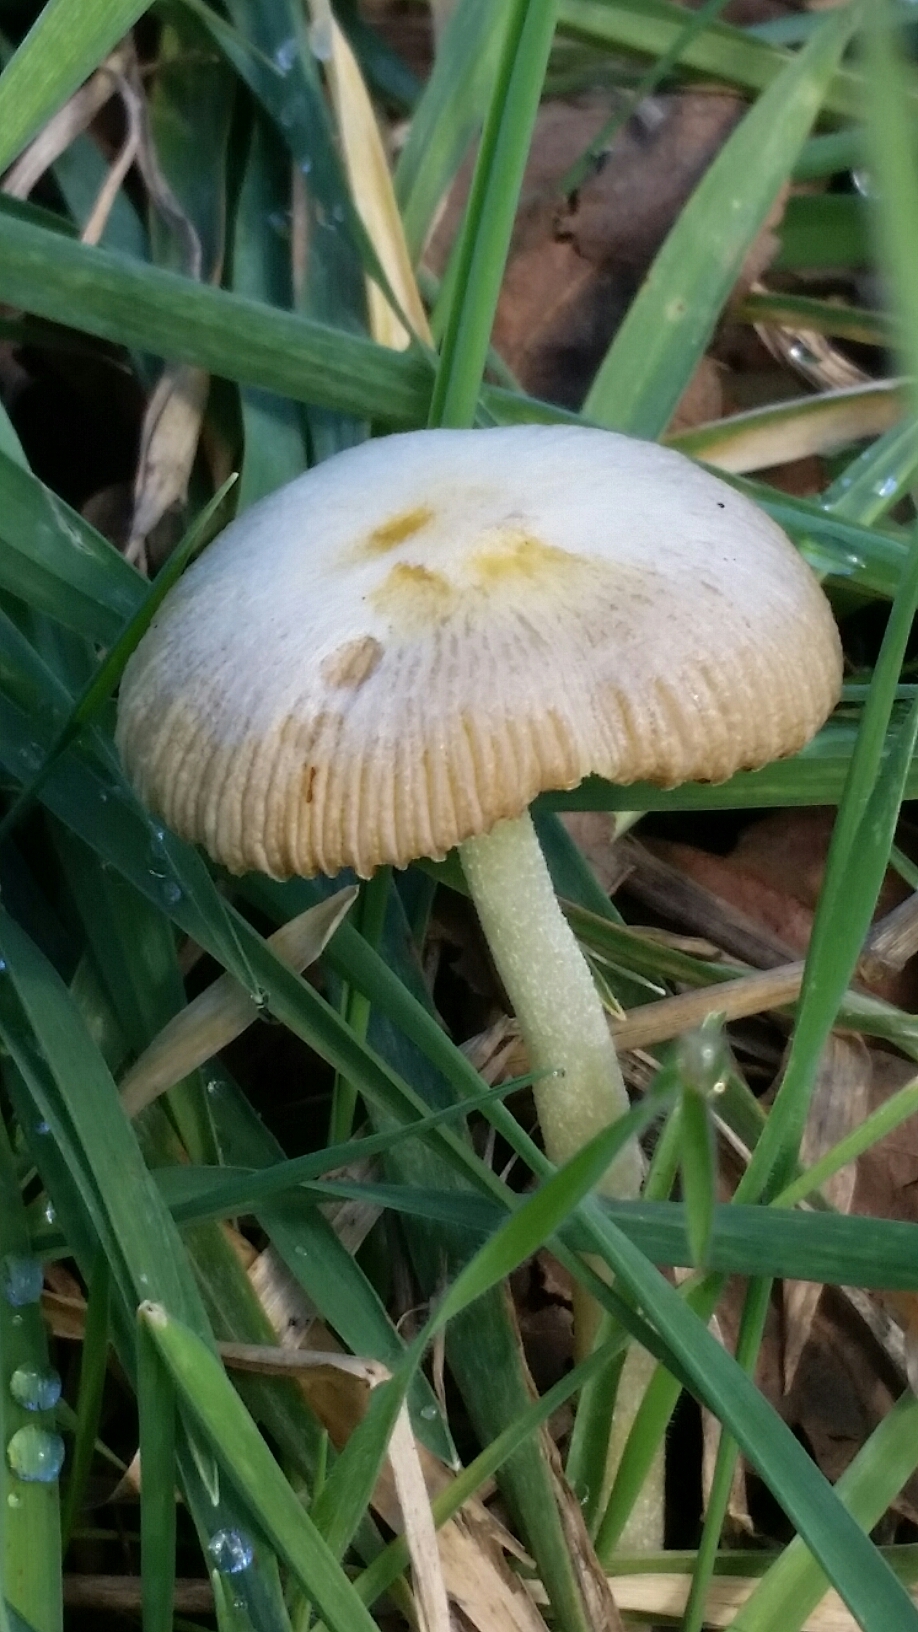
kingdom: Fungi
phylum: Basidiomycota
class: Agaricomycetes
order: Agaricales
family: Bolbitiaceae
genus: Bolbitius
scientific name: Bolbitius titubans
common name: Yellow fieldcap
